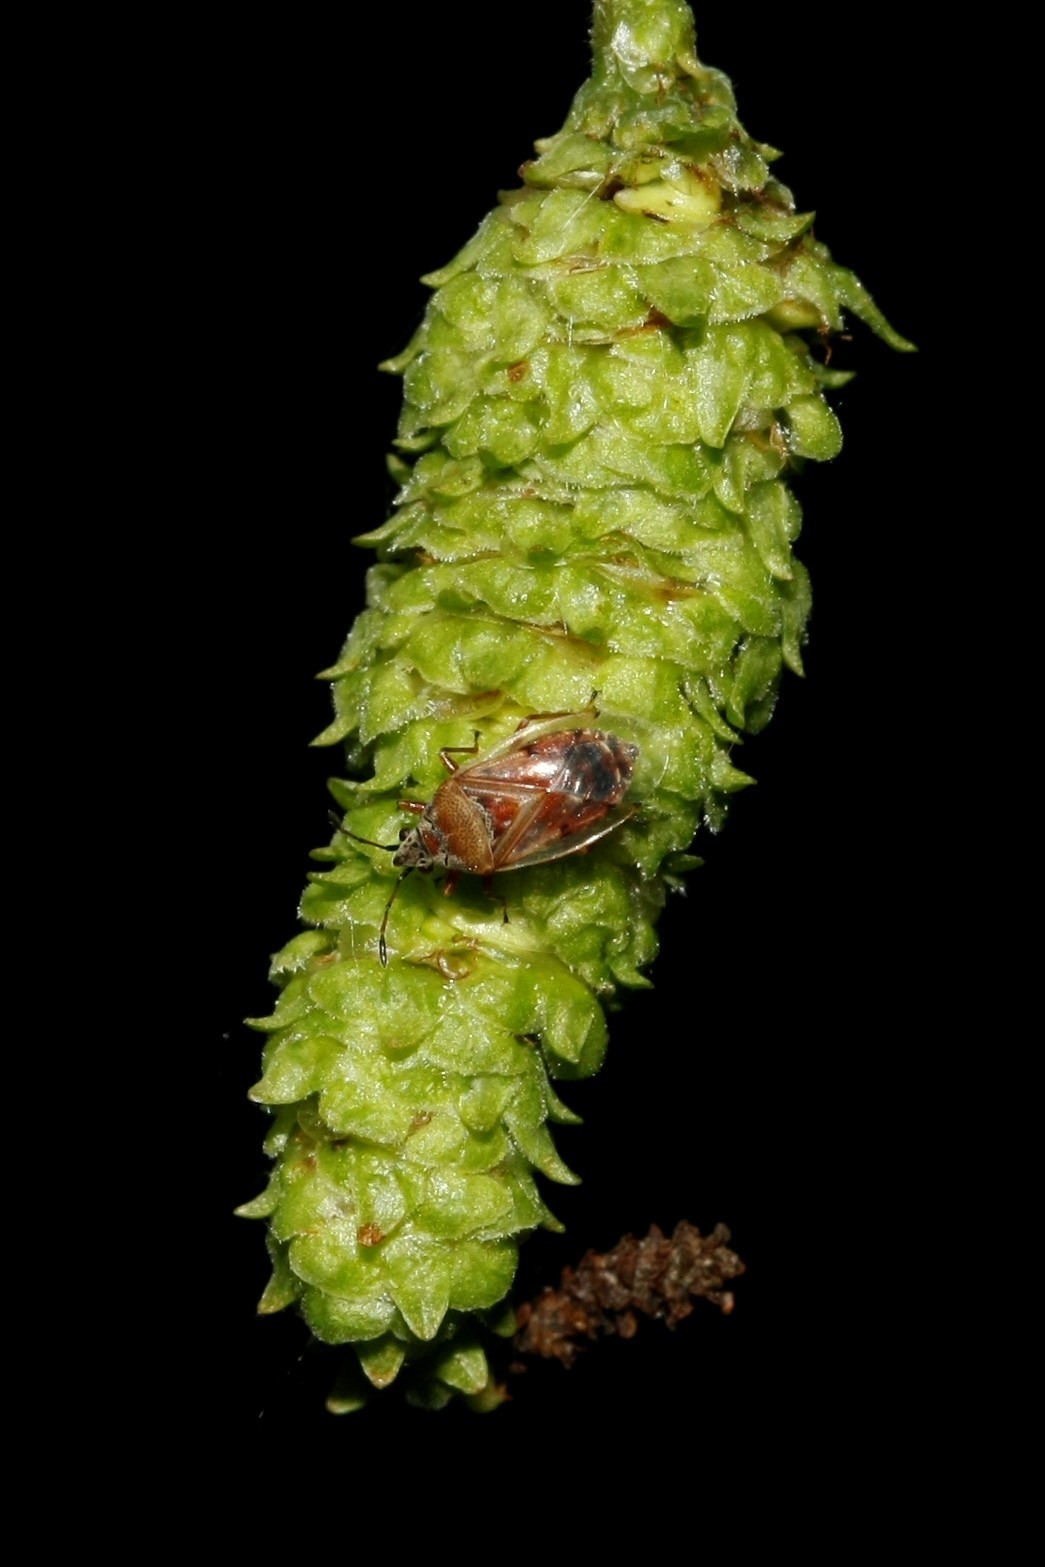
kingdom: Animalia
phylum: Arthropoda
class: Insecta
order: Hemiptera
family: Lygaeidae
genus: Kleidocerys
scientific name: Kleidocerys resedae
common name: Birch catkin bug
